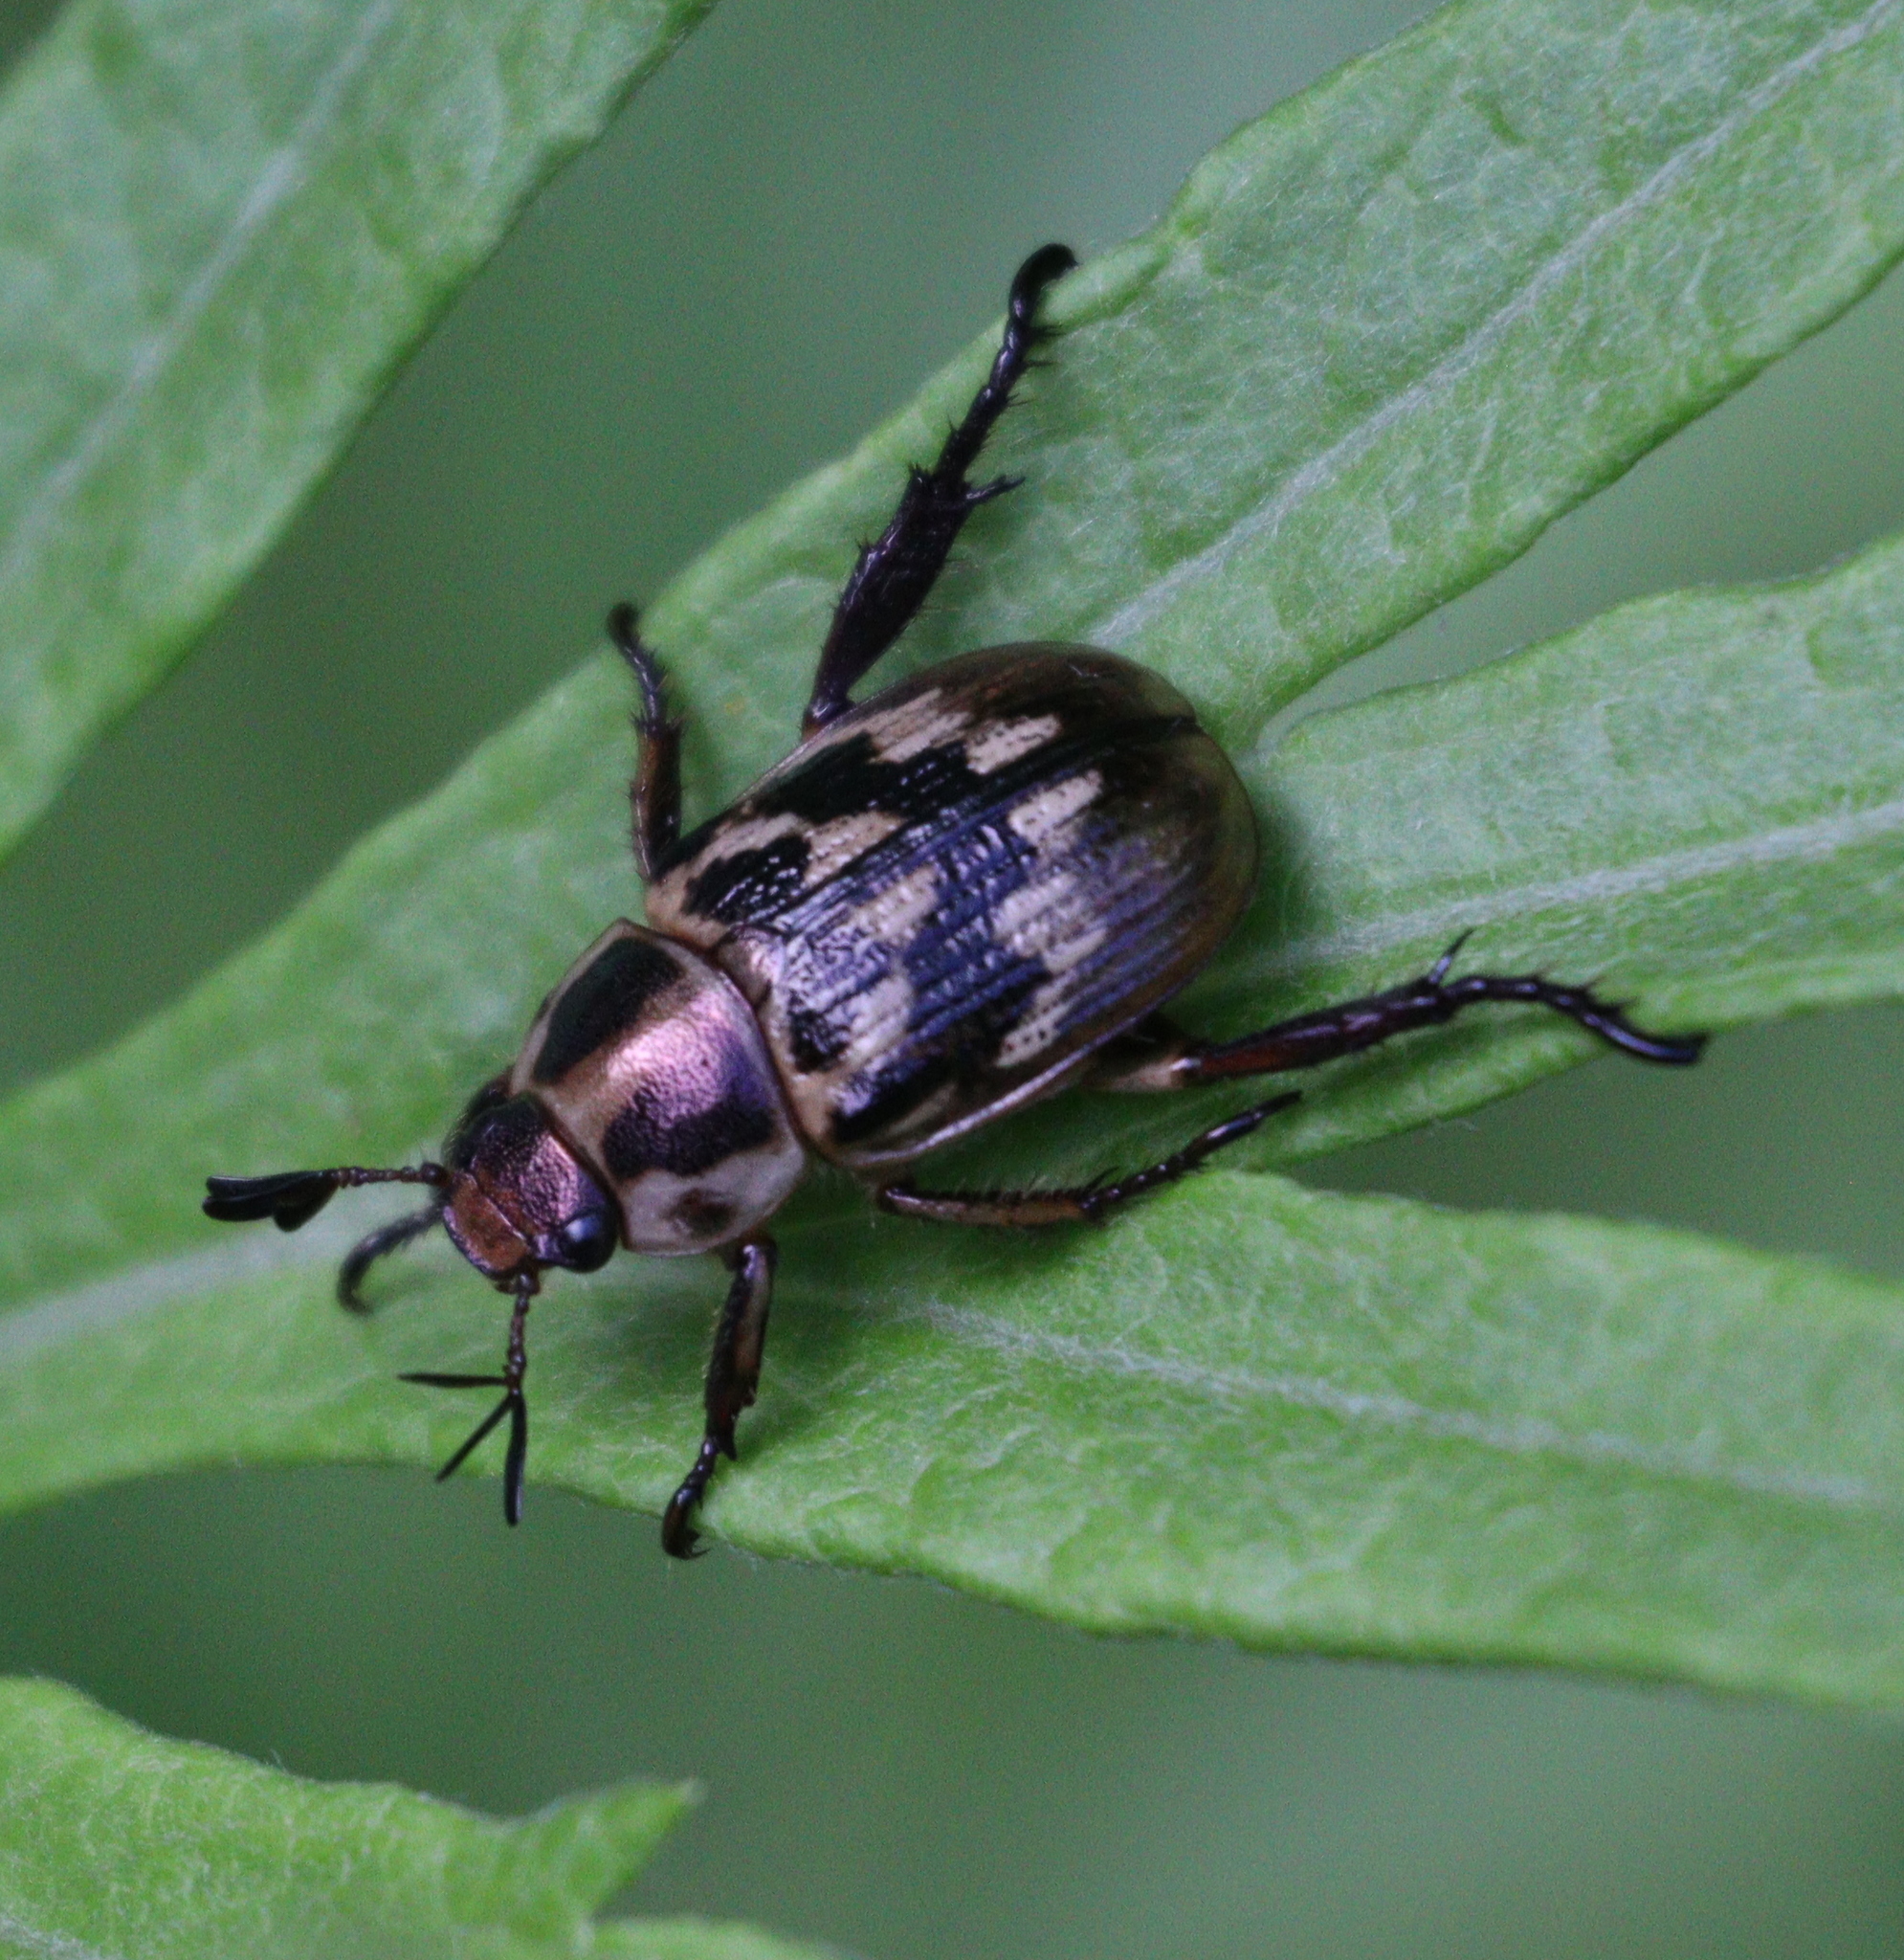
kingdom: Animalia
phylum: Arthropoda
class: Insecta
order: Coleoptera
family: Scarabaeidae
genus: Exomala
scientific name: Exomala orientalis
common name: Oriental beetle
